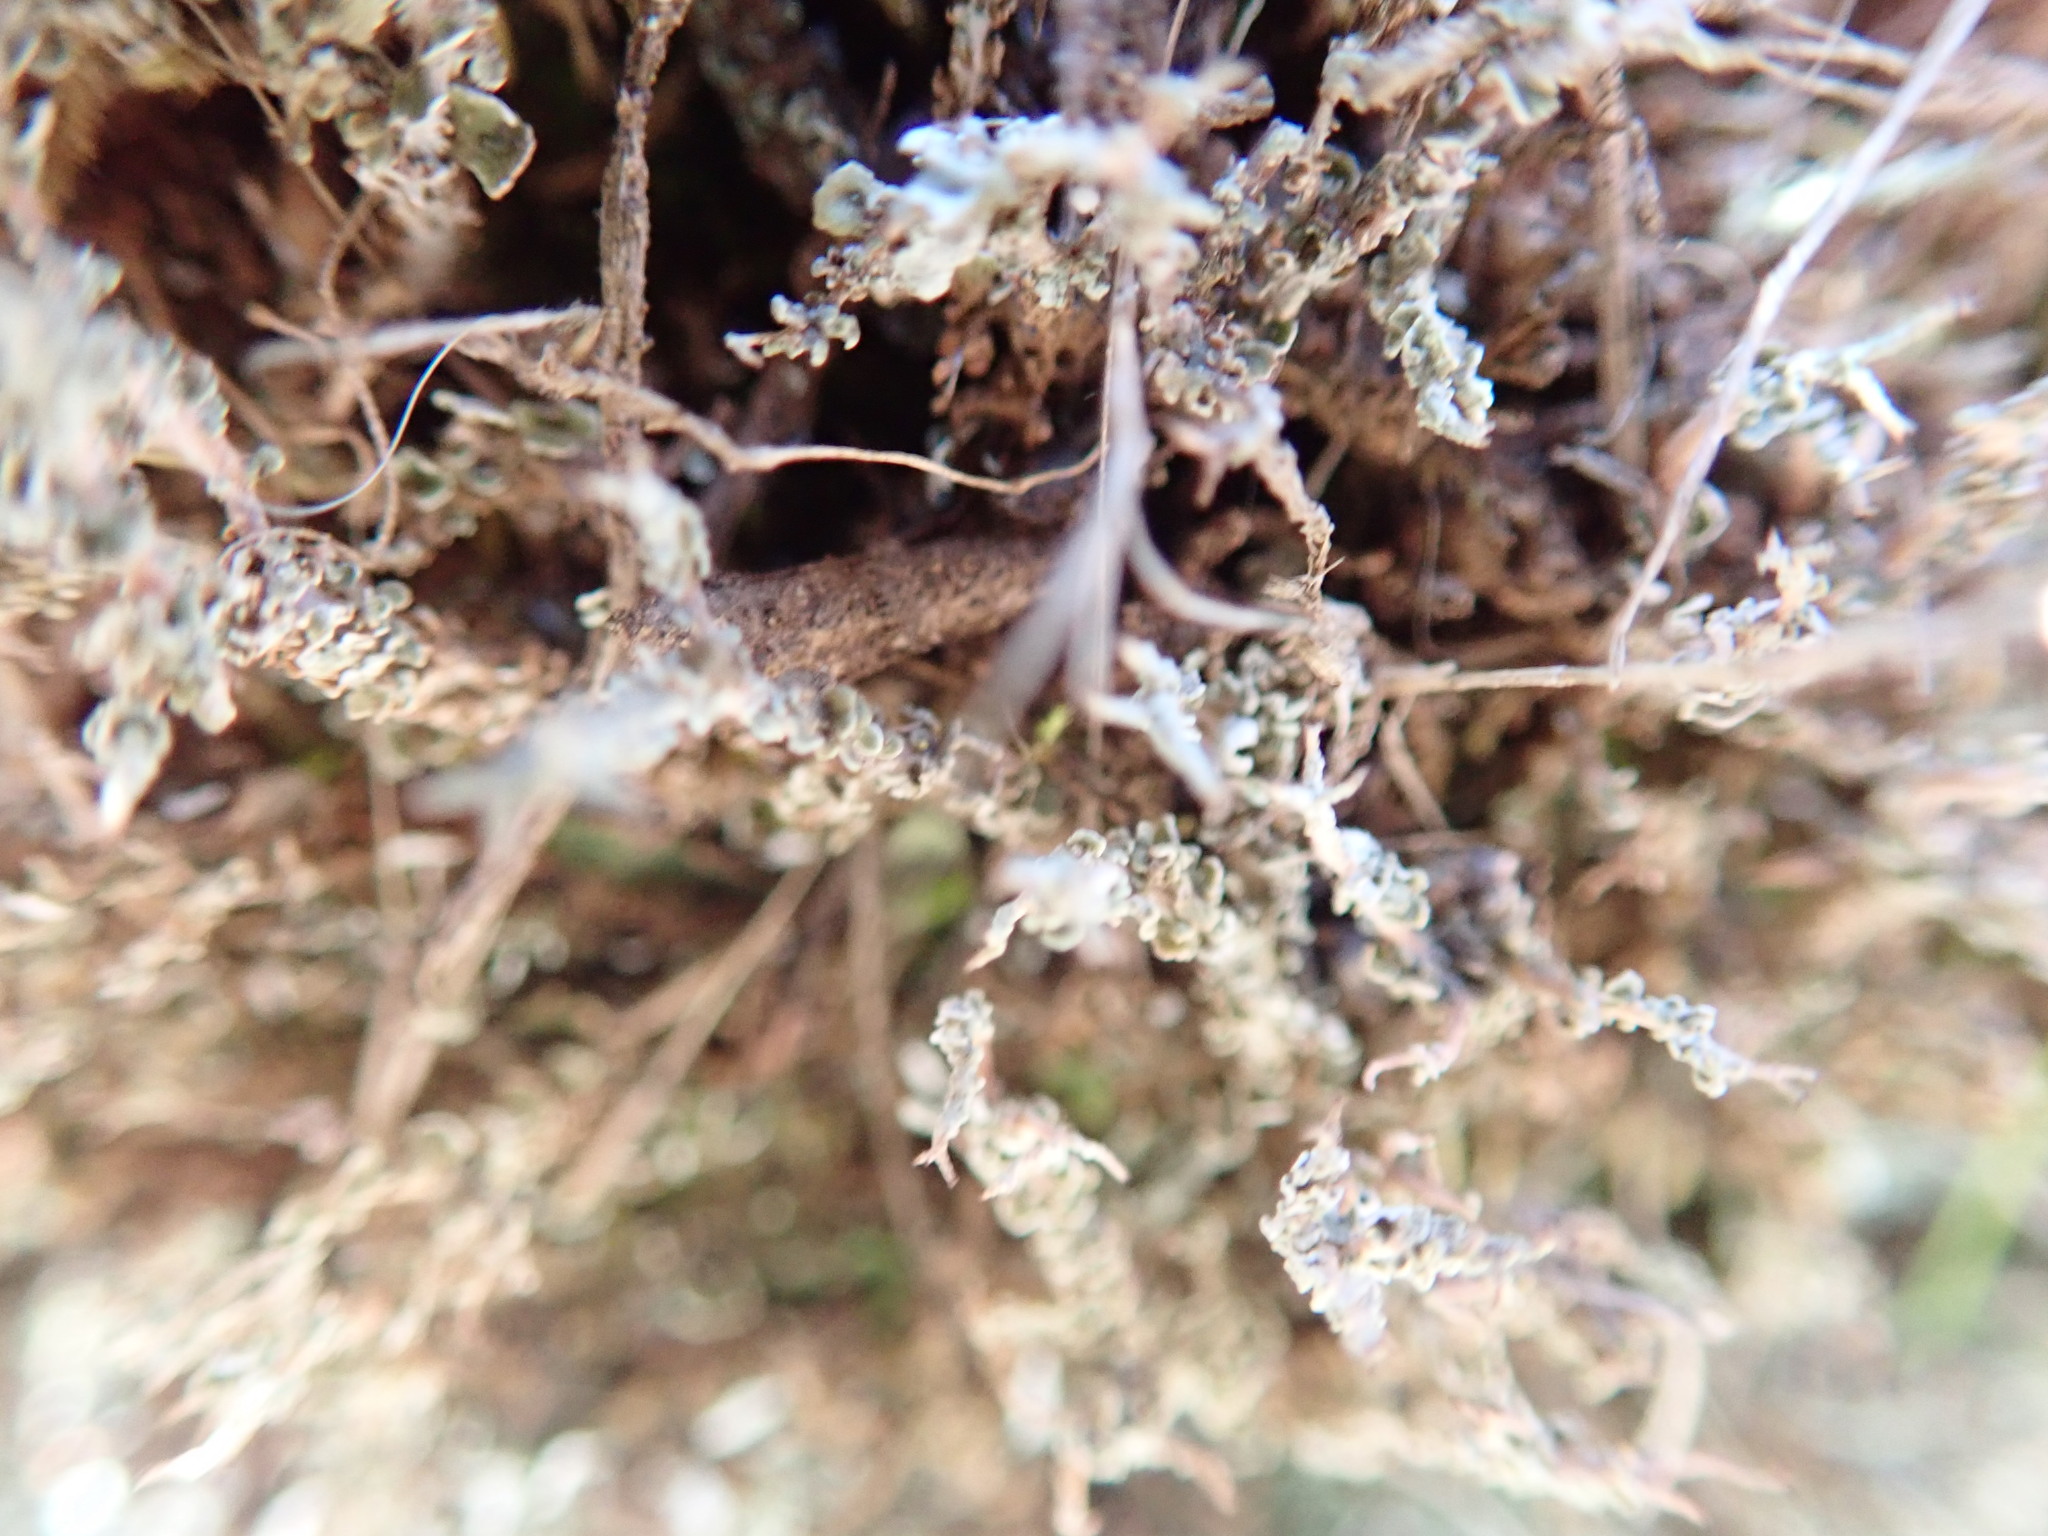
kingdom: Fungi
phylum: Ascomycota
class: Lecanoromycetes
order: Lecanorales
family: Cladoniaceae
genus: Cladonia
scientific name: Cladonia scabriuscula
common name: Mealy forked clad lichen
